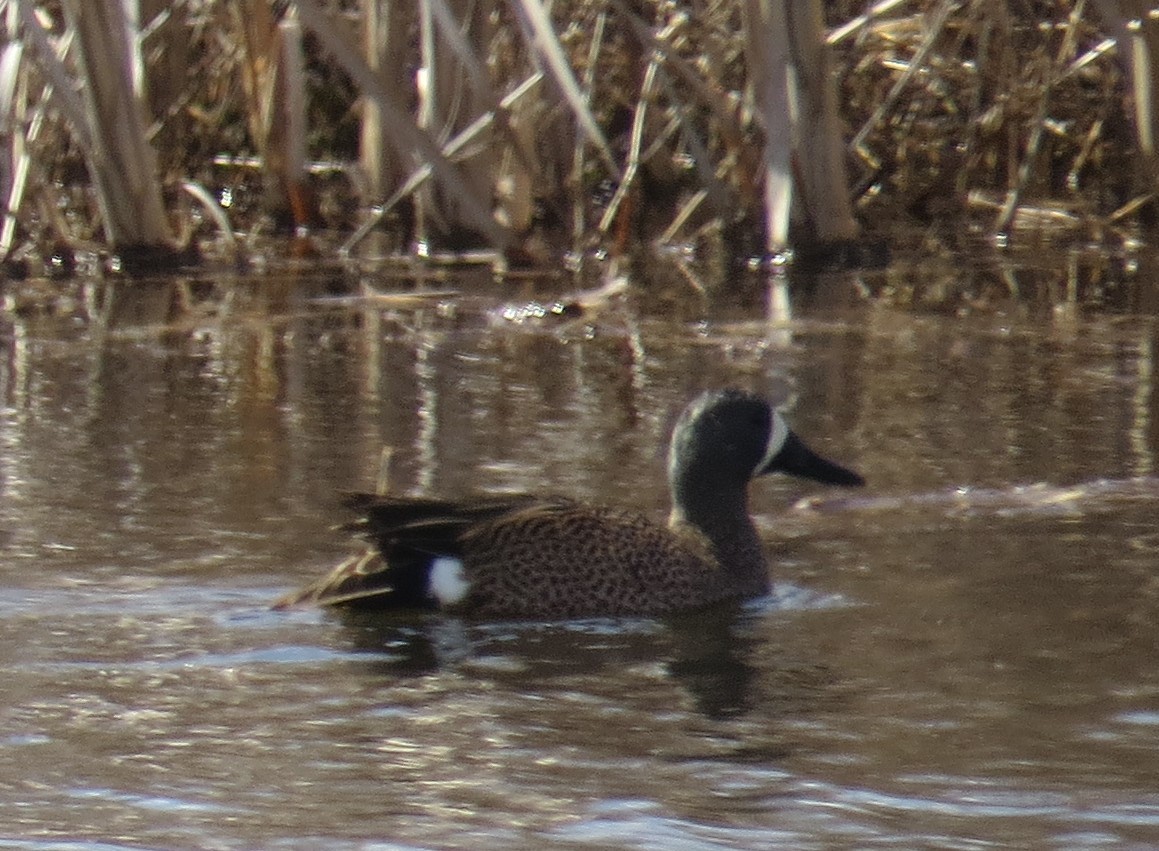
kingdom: Animalia
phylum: Chordata
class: Aves
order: Anseriformes
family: Anatidae
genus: Spatula
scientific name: Spatula discors
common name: Blue-winged teal
